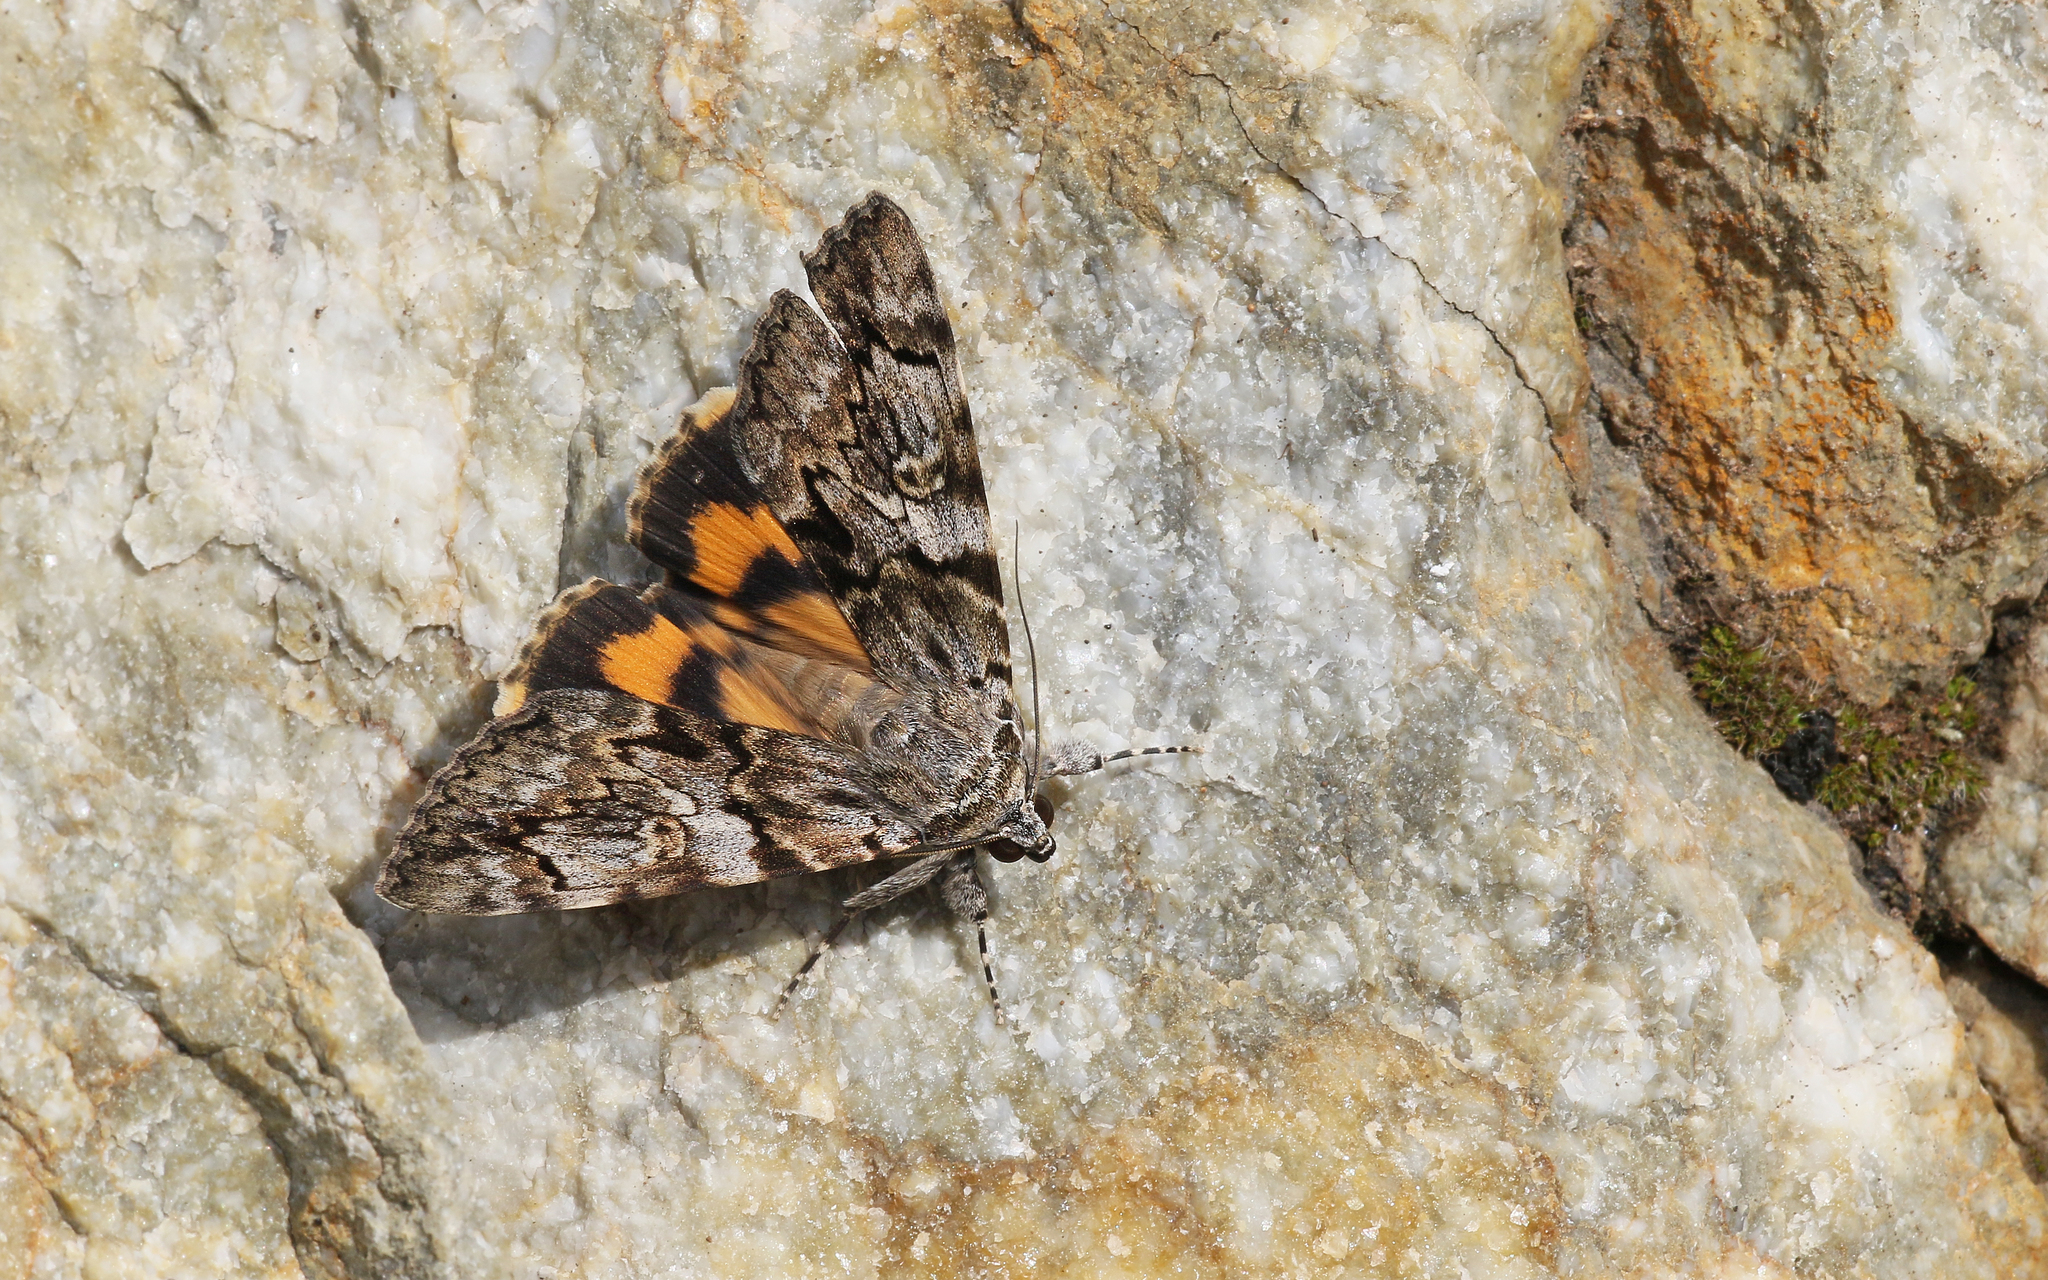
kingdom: Animalia
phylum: Arthropoda
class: Insecta
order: Lepidoptera
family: Erebidae
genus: Catocala
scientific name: Catocala conversa
